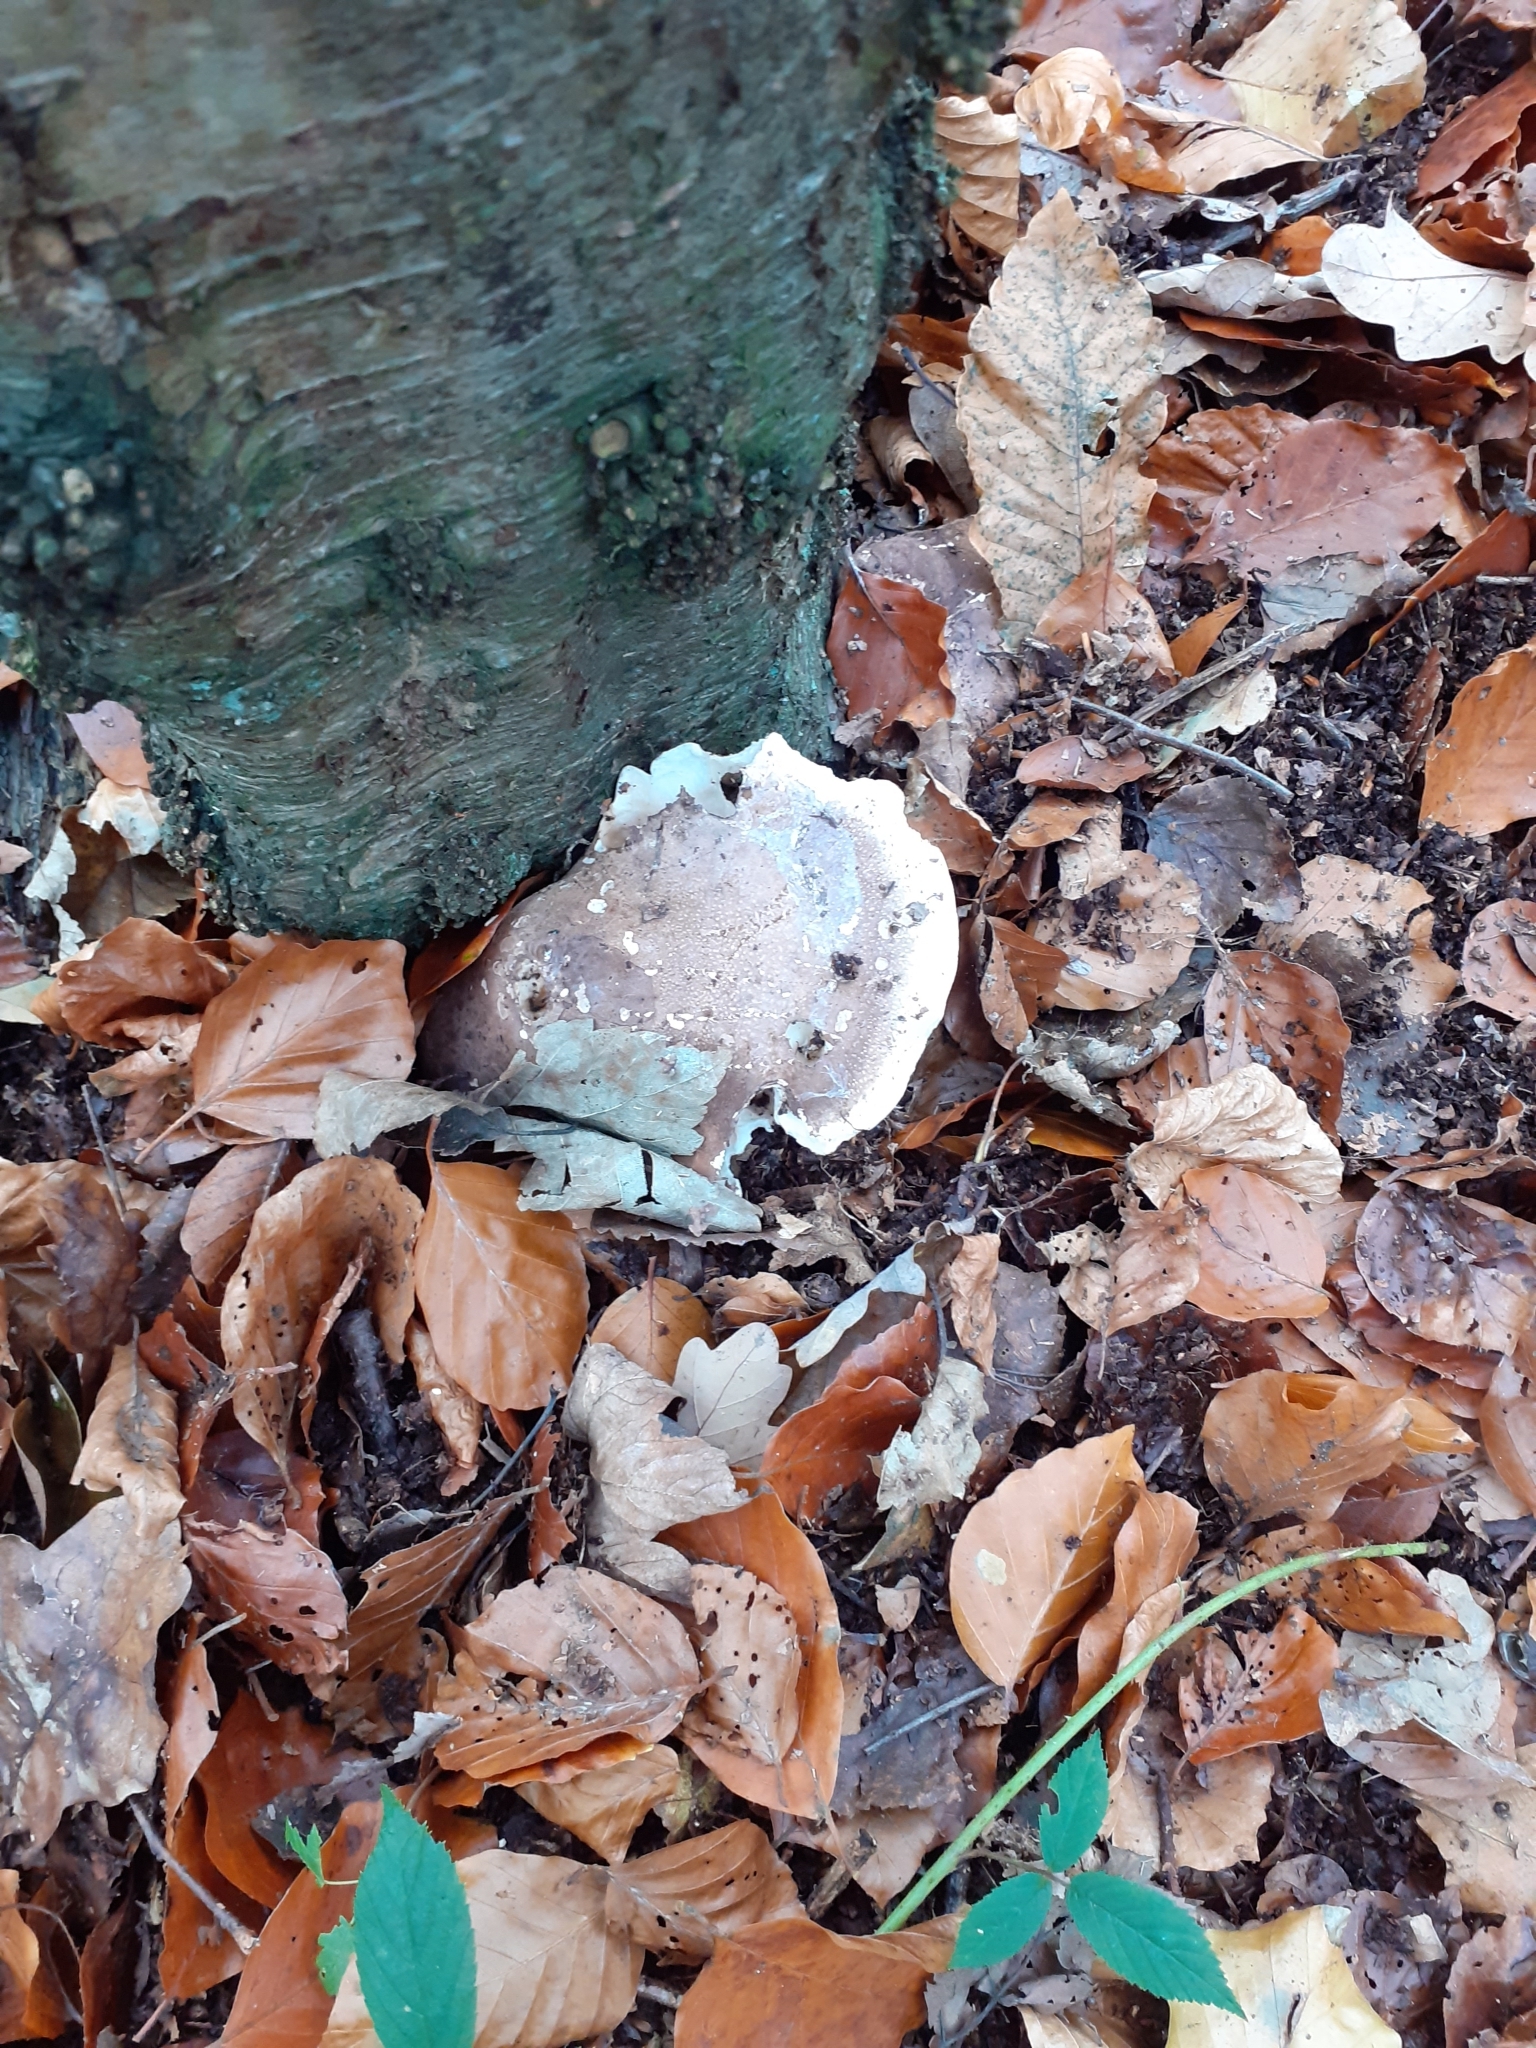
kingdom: Fungi
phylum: Basidiomycota
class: Agaricomycetes
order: Polyporales
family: Fomitopsidaceae
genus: Fomitopsis
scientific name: Fomitopsis betulina
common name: Birch polypore
